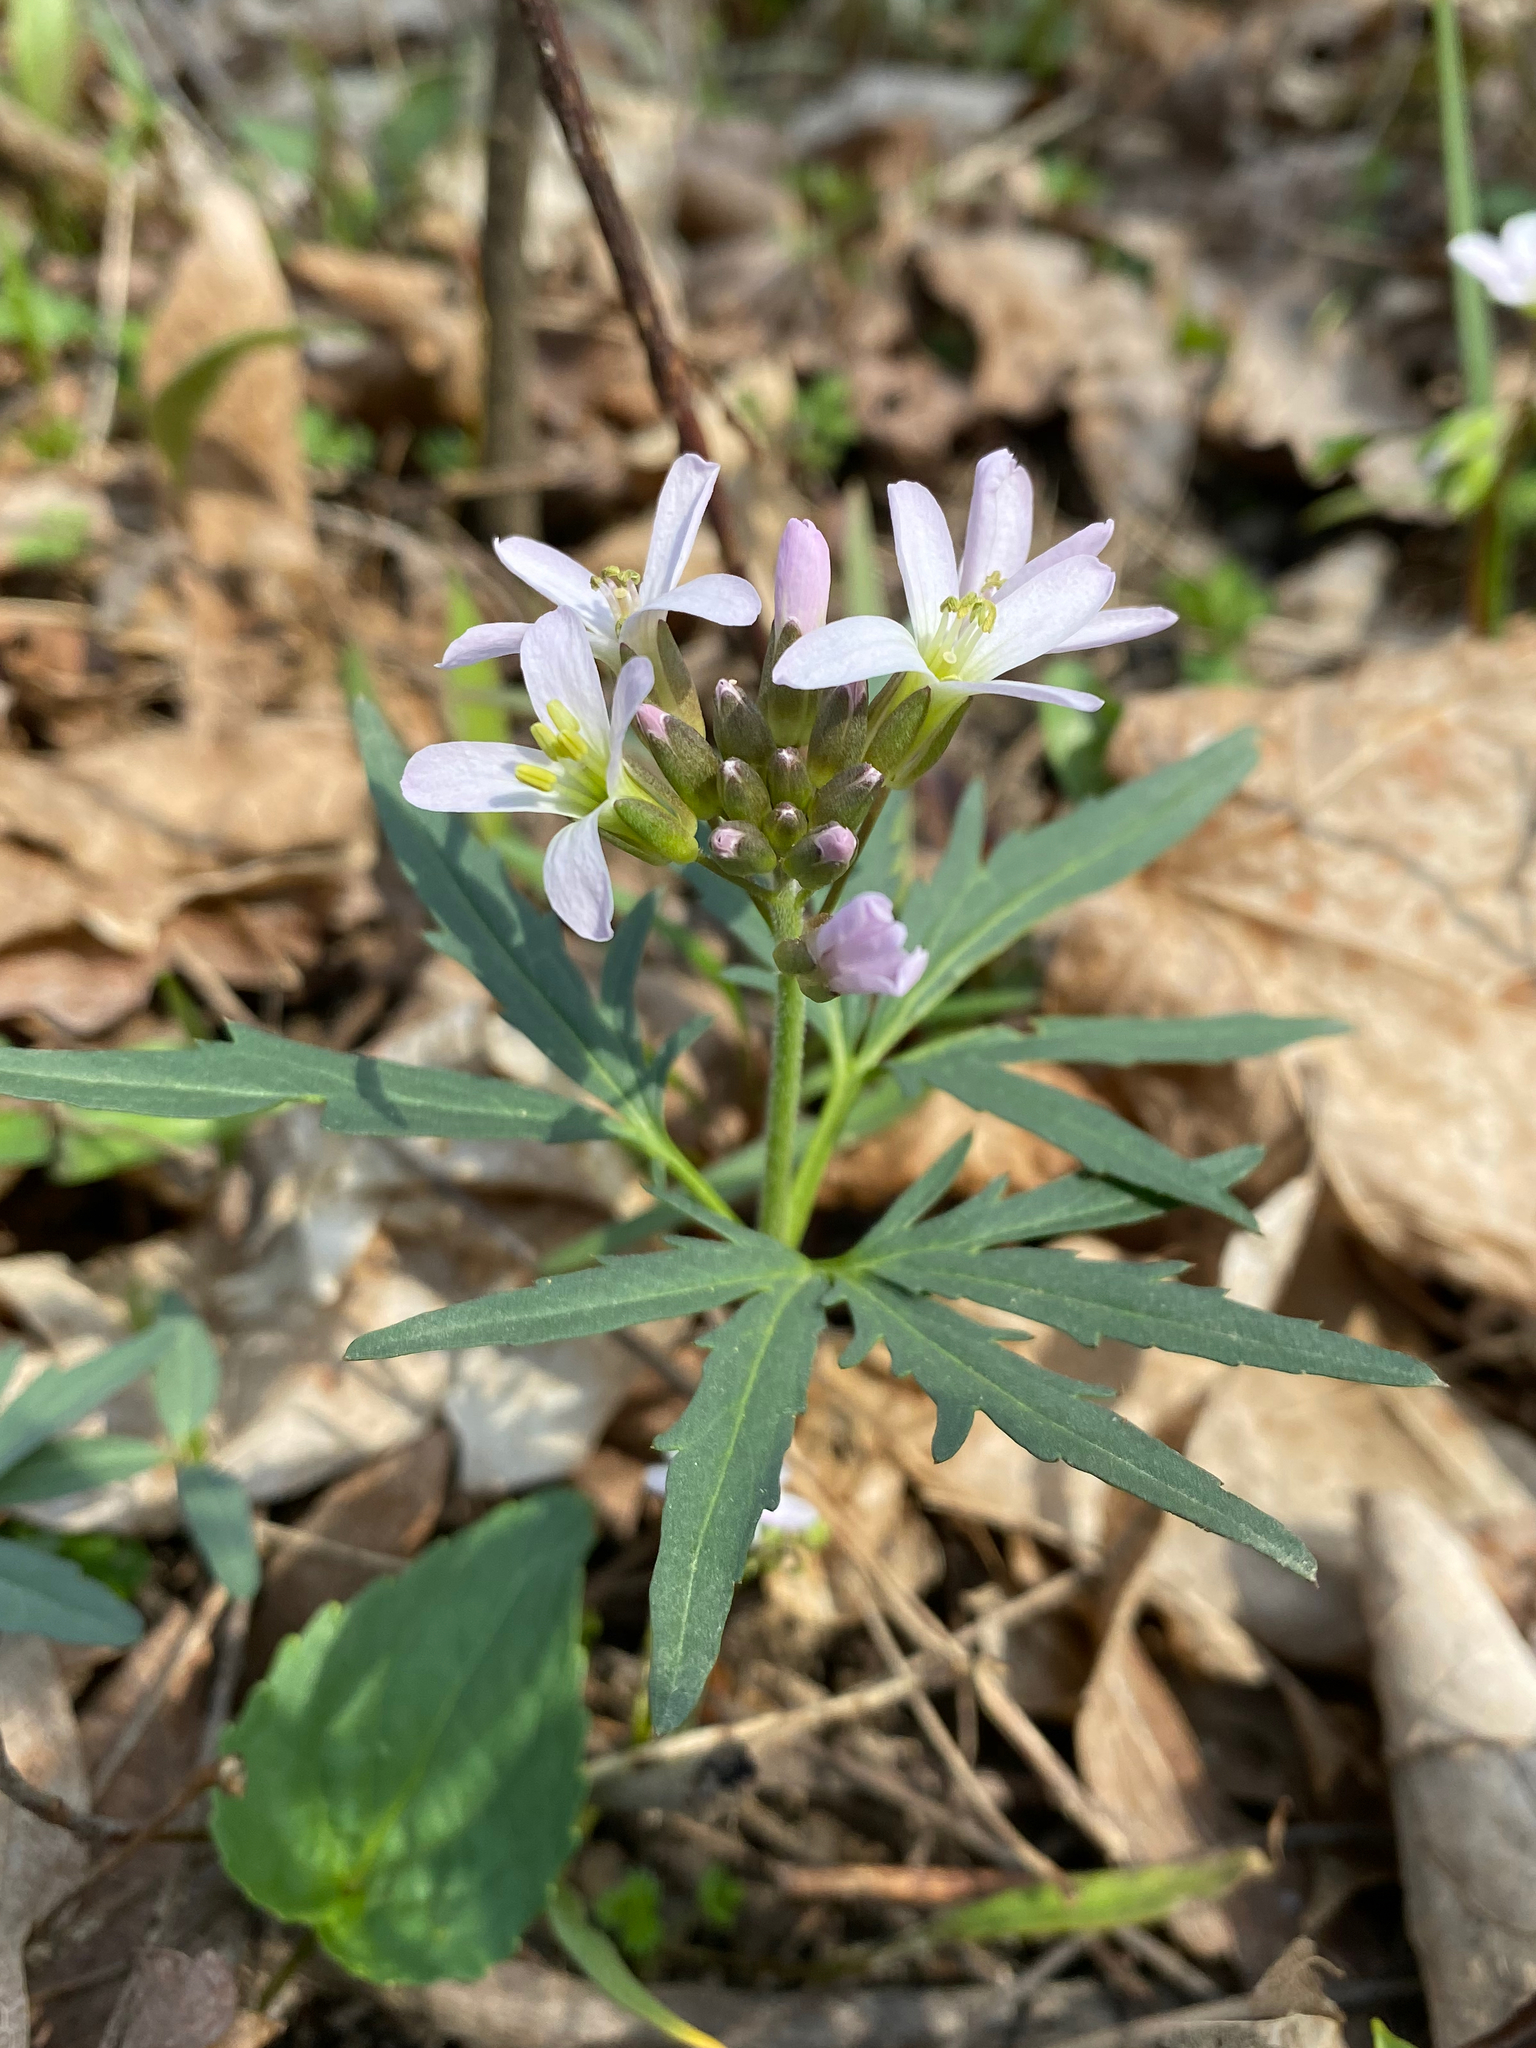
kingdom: Plantae
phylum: Tracheophyta
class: Magnoliopsida
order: Brassicales
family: Brassicaceae
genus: Cardamine
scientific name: Cardamine concatenata
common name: Cut-leaf toothcup
